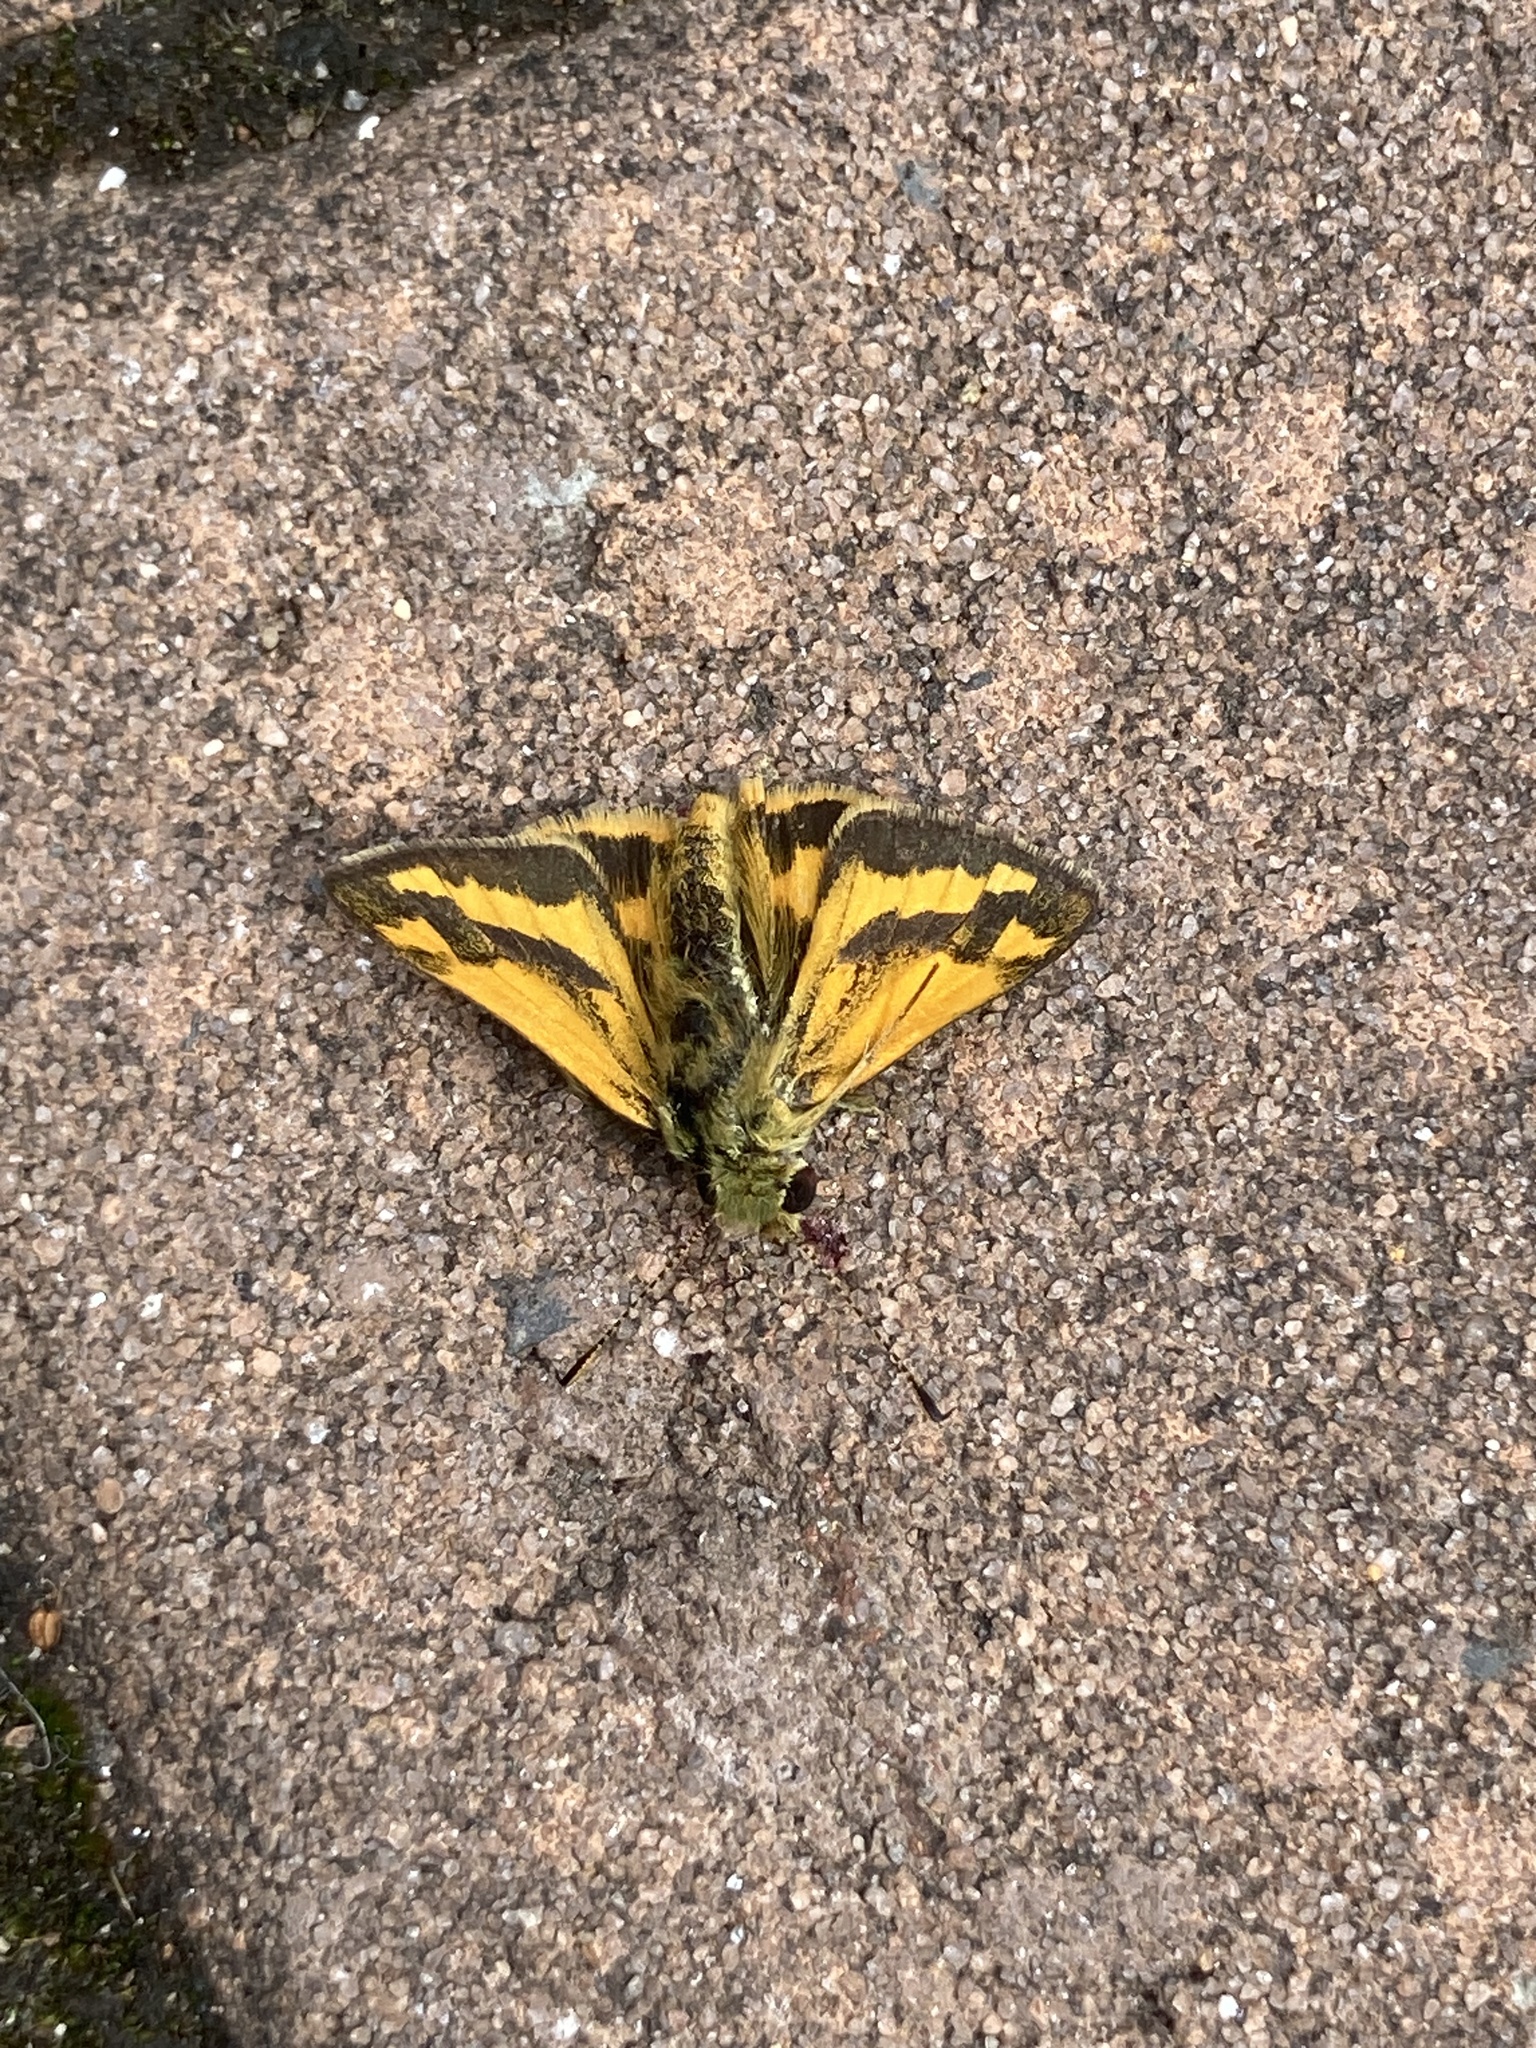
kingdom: Animalia
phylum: Arthropoda
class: Insecta
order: Lepidoptera
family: Hesperiidae
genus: Ocybadistes
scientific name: Ocybadistes walkeri
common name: Yellow-banded dart
